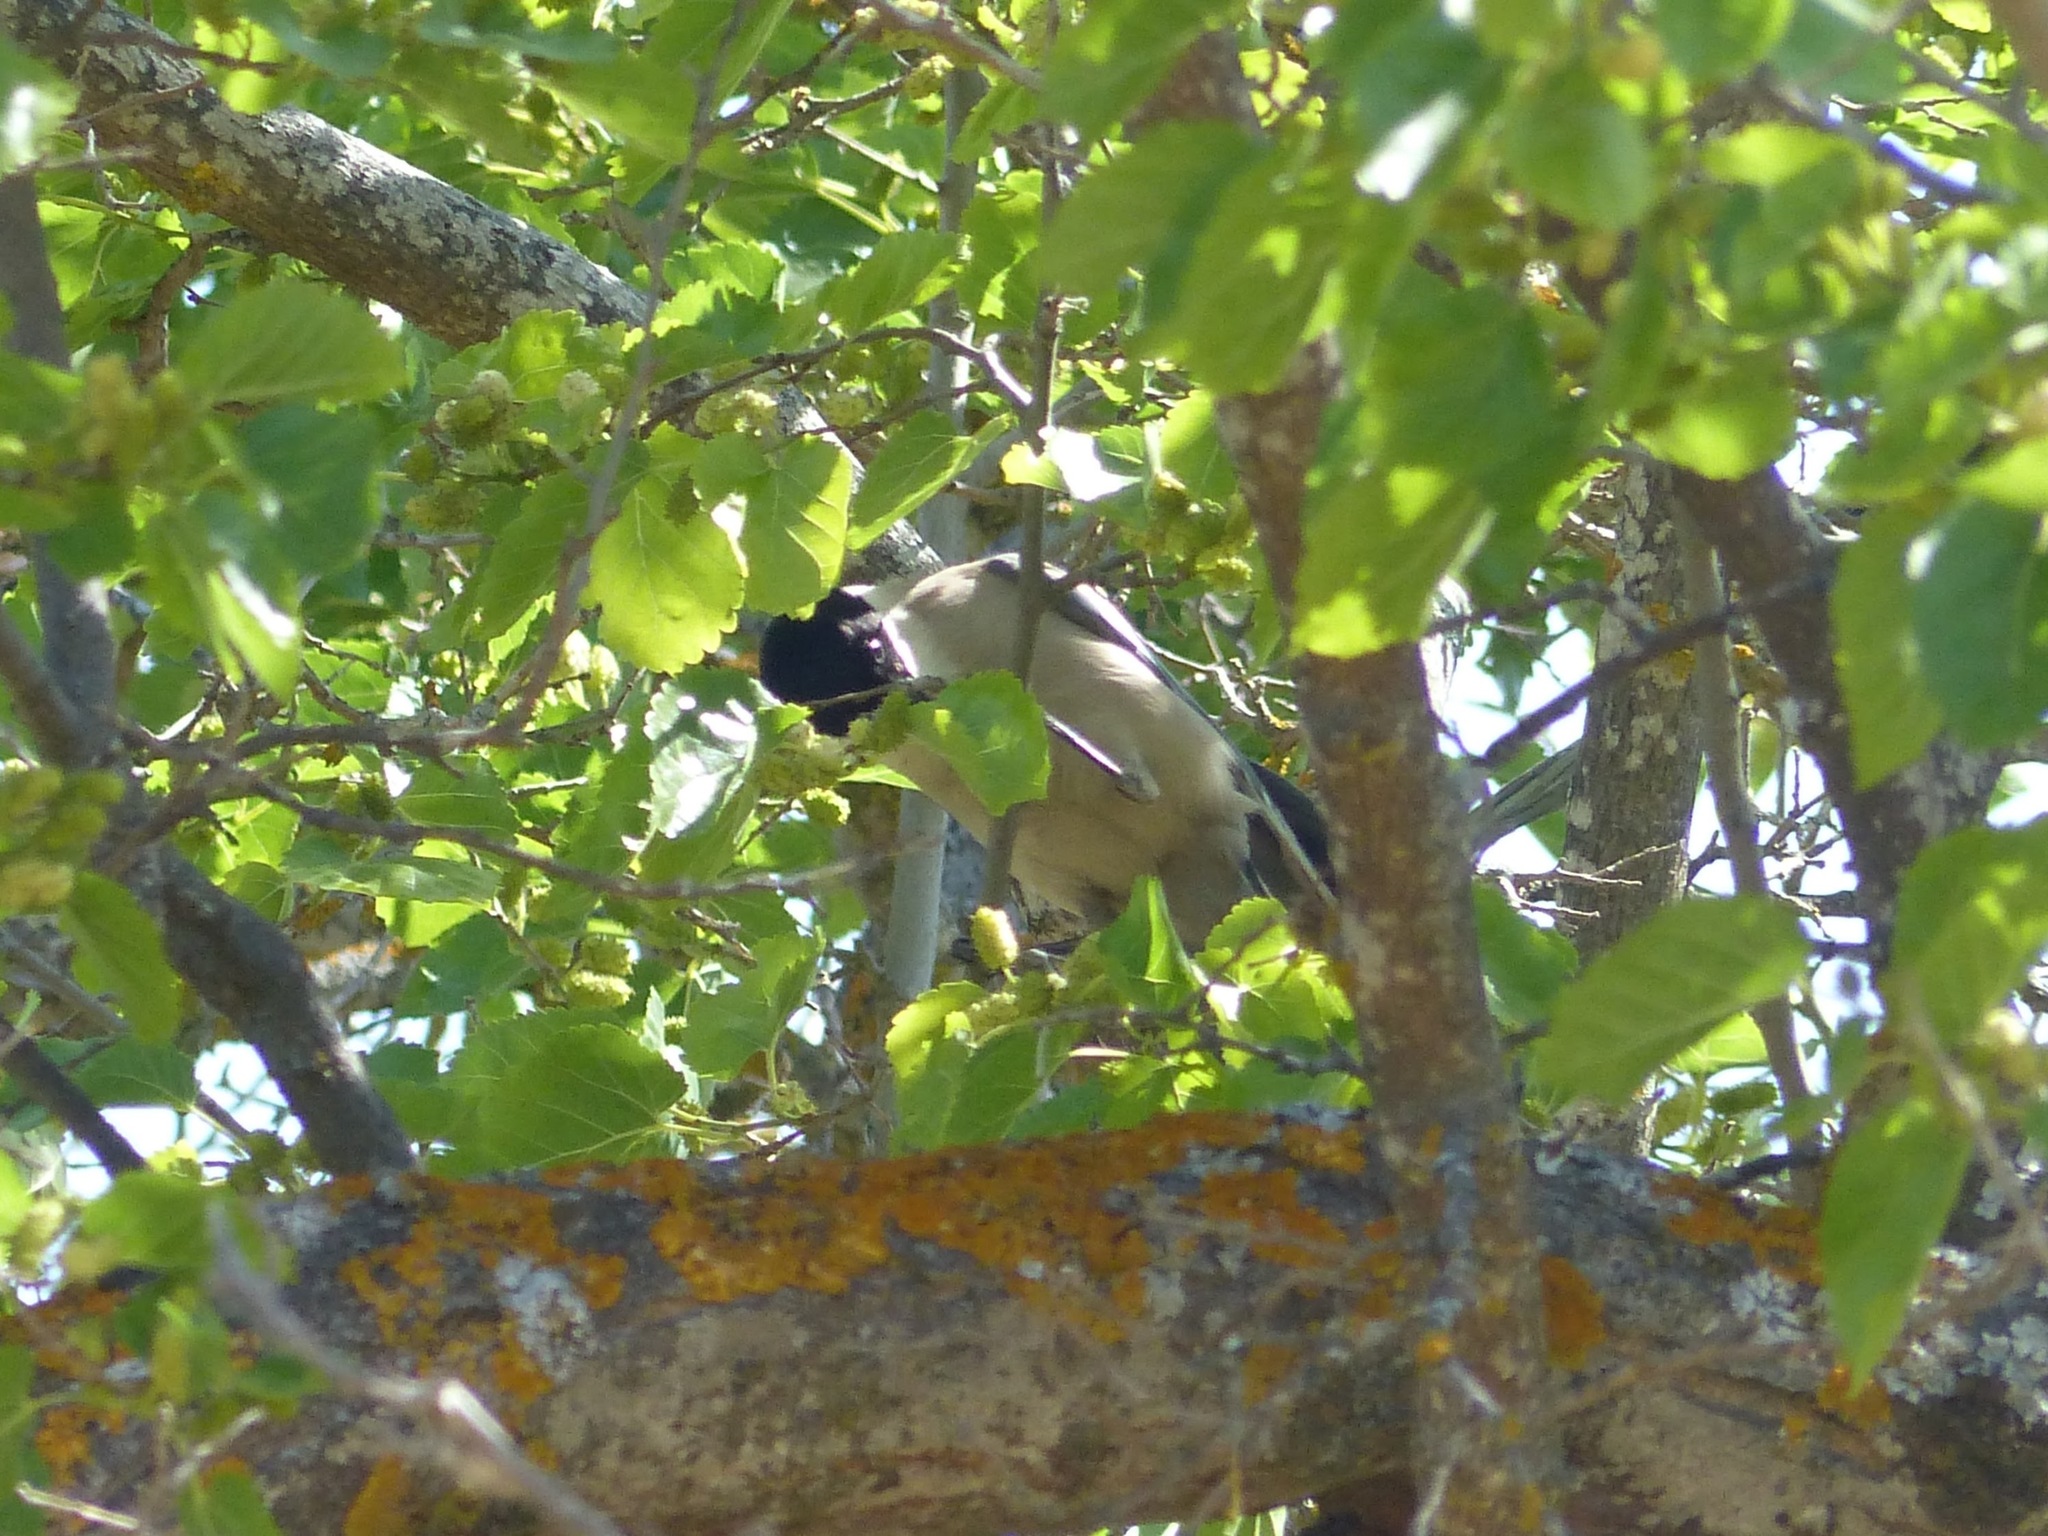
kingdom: Animalia
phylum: Chordata
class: Aves
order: Passeriformes
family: Corvidae
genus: Cyanopica
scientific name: Cyanopica cooki
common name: Iberian magpie
